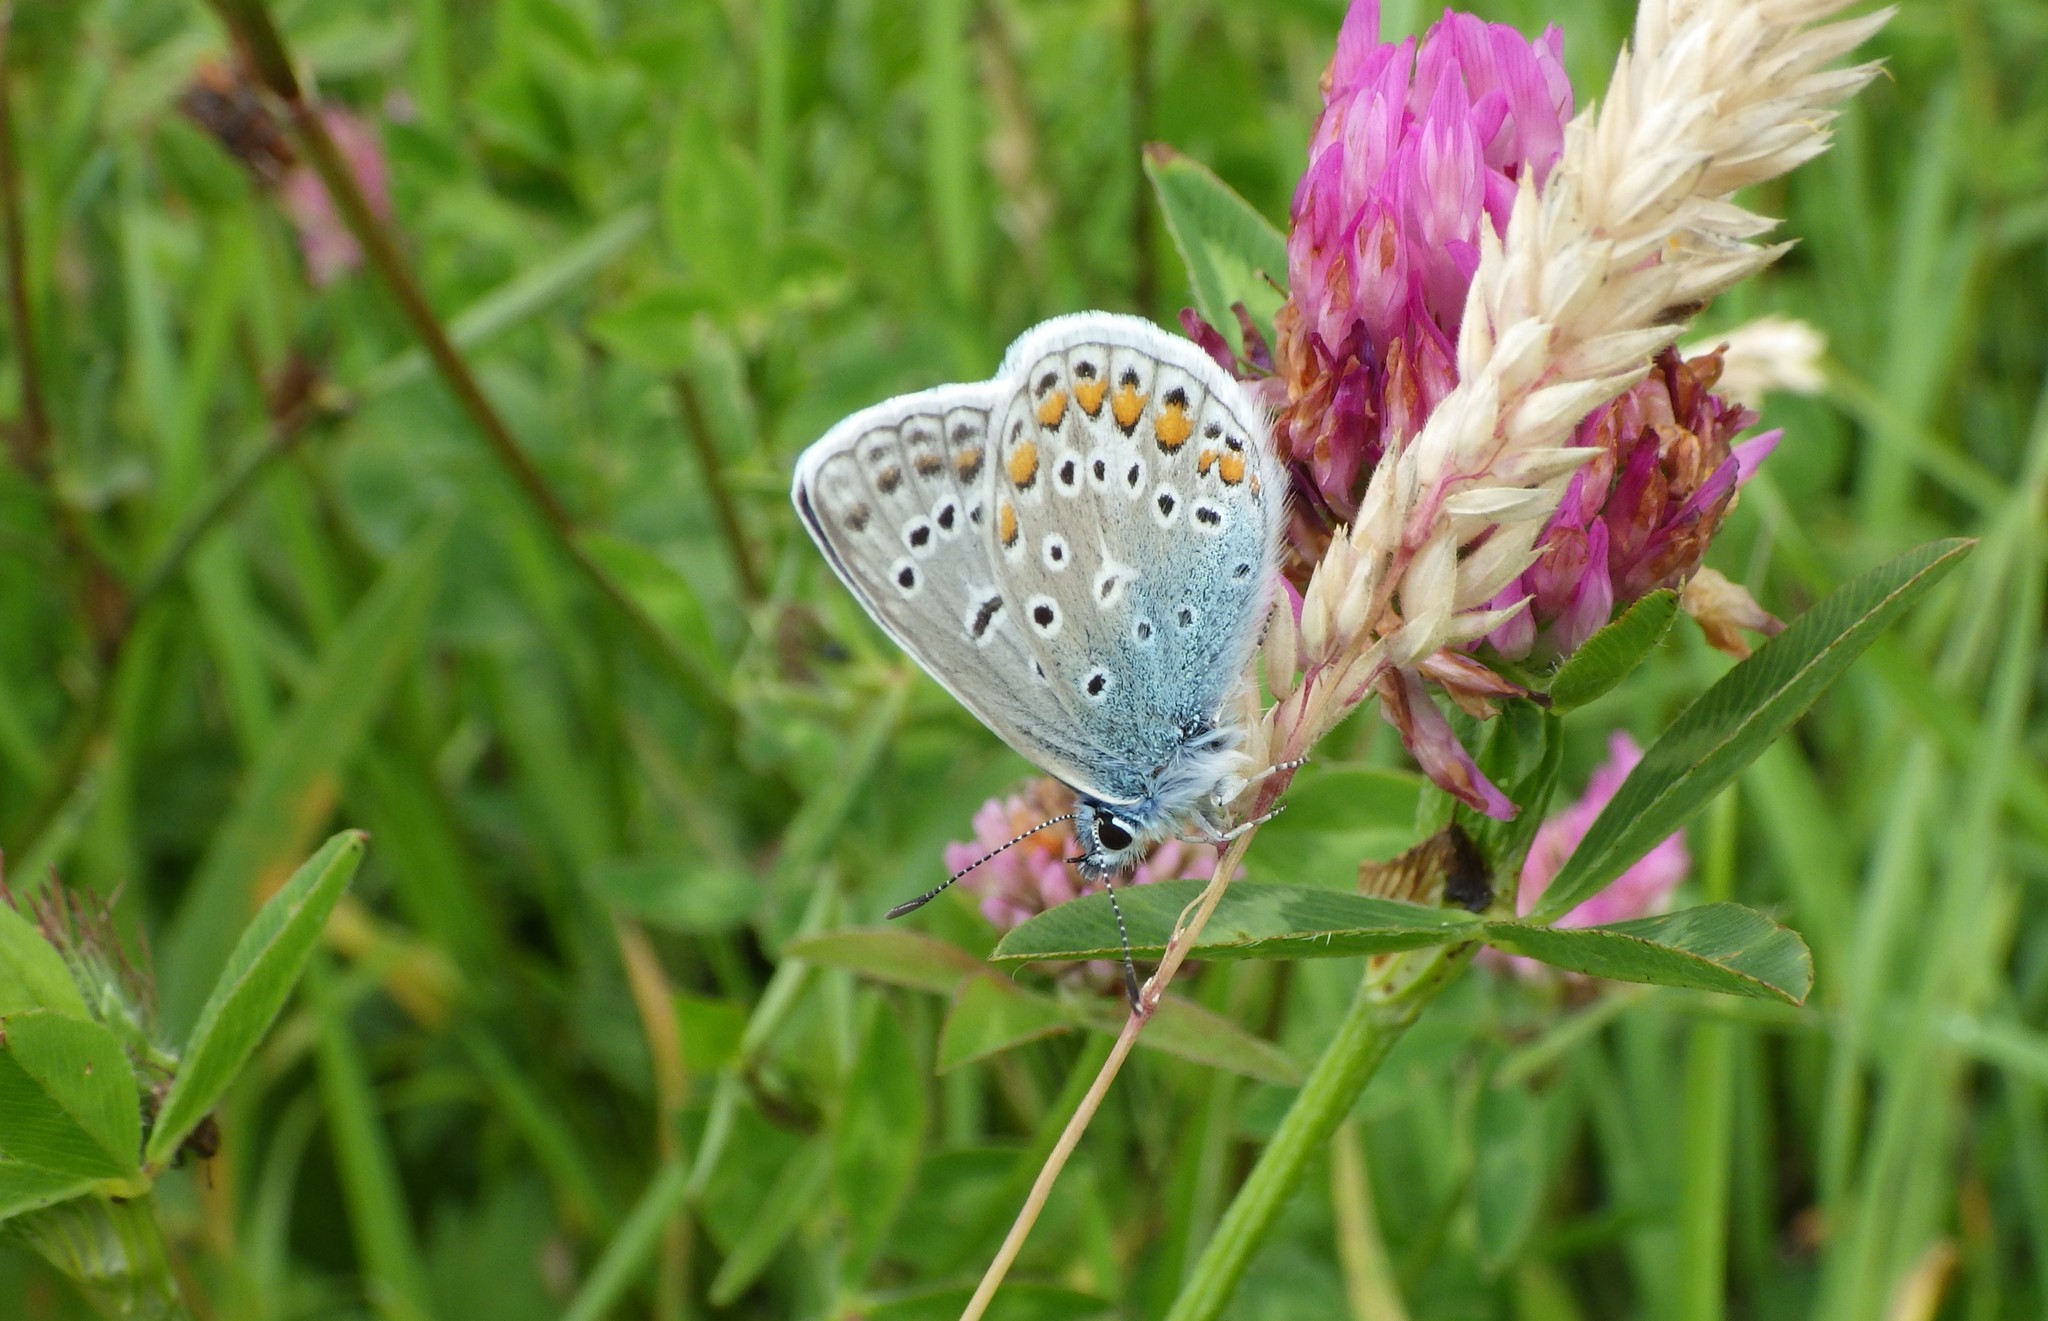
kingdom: Animalia
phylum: Arthropoda
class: Insecta
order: Lepidoptera
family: Lycaenidae
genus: Polyommatus
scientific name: Polyommatus icarus
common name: Common blue
